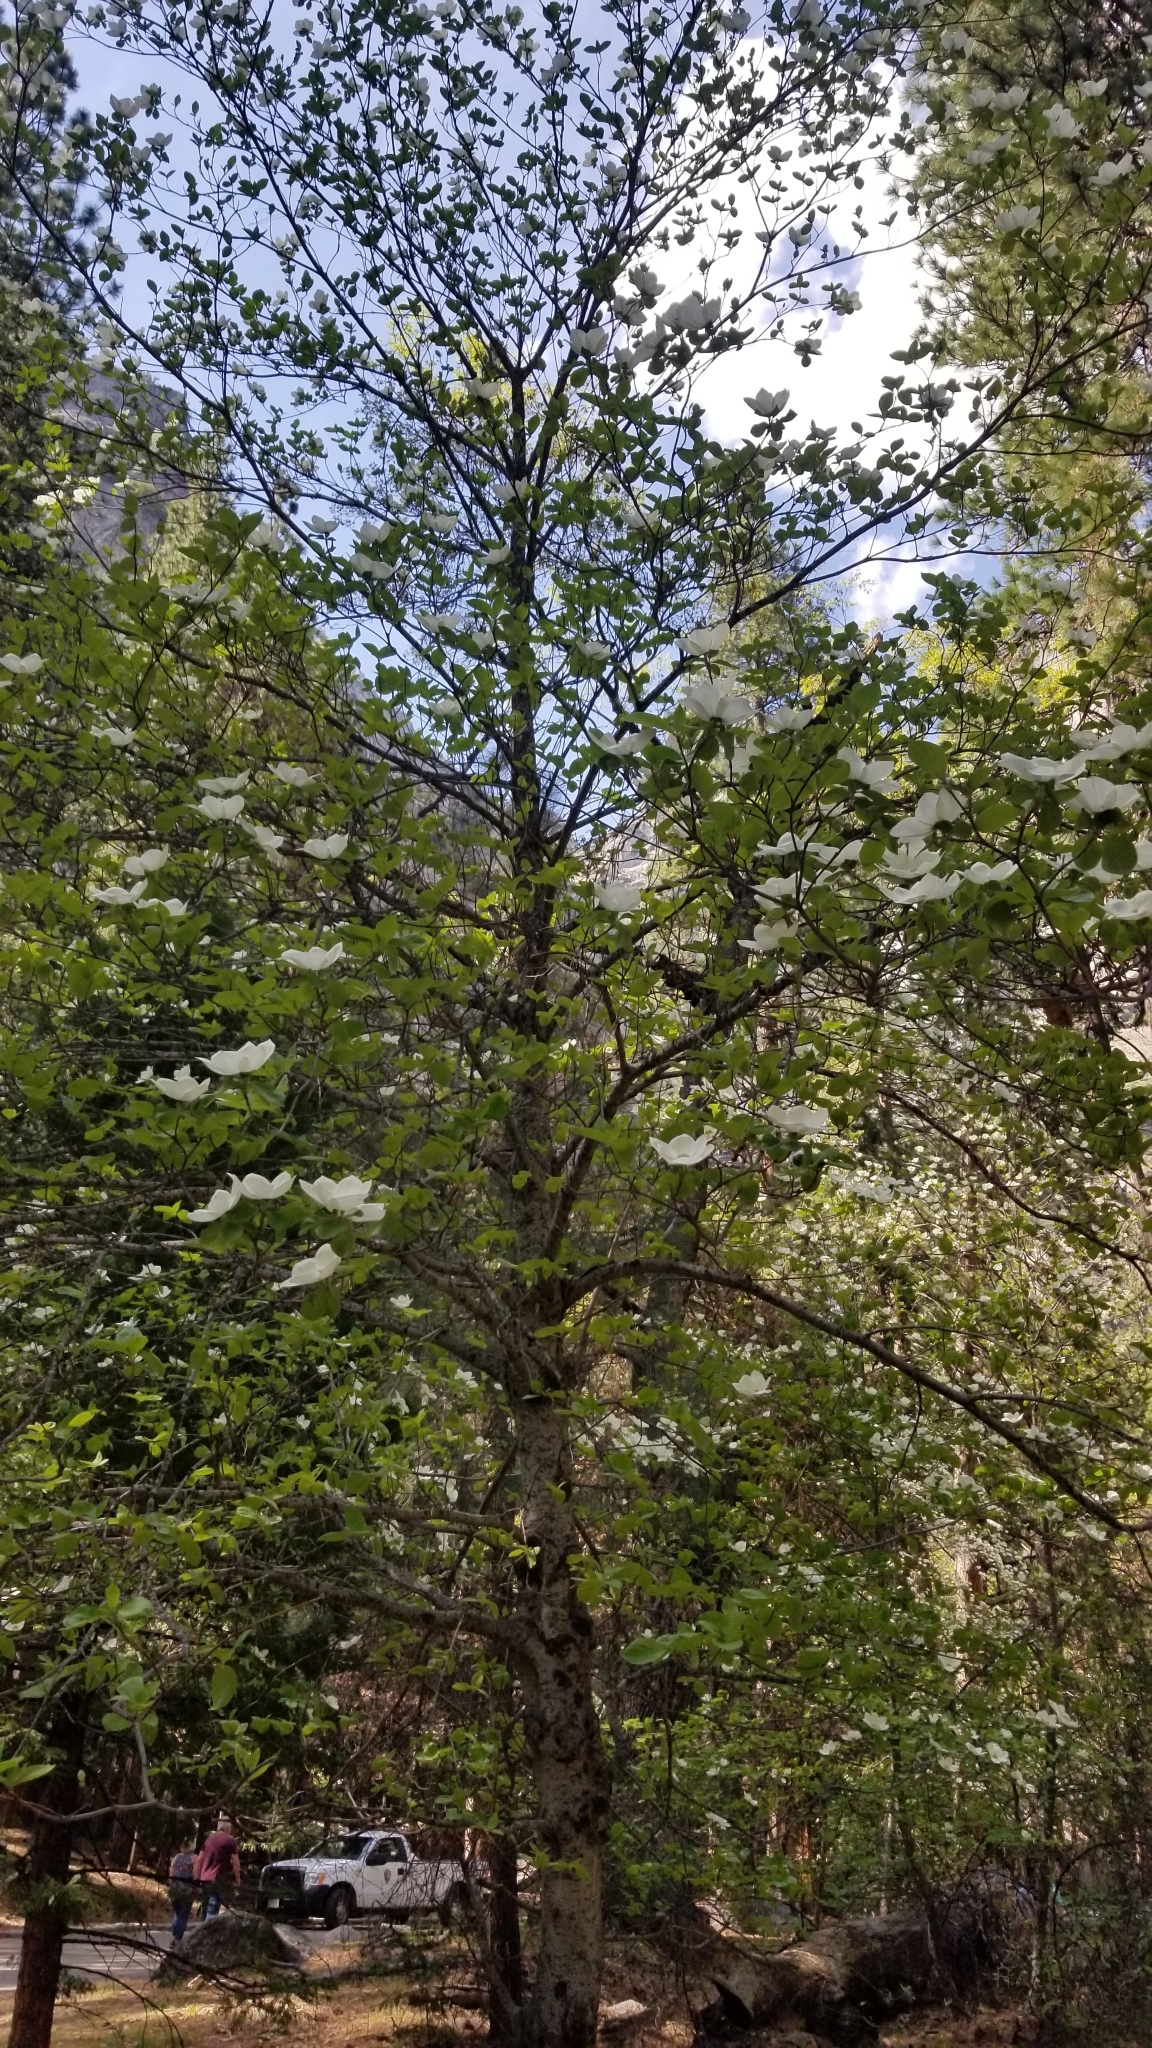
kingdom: Plantae
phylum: Tracheophyta
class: Magnoliopsida
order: Cornales
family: Cornaceae
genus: Cornus
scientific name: Cornus nuttallii
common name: Pacific dogwood
